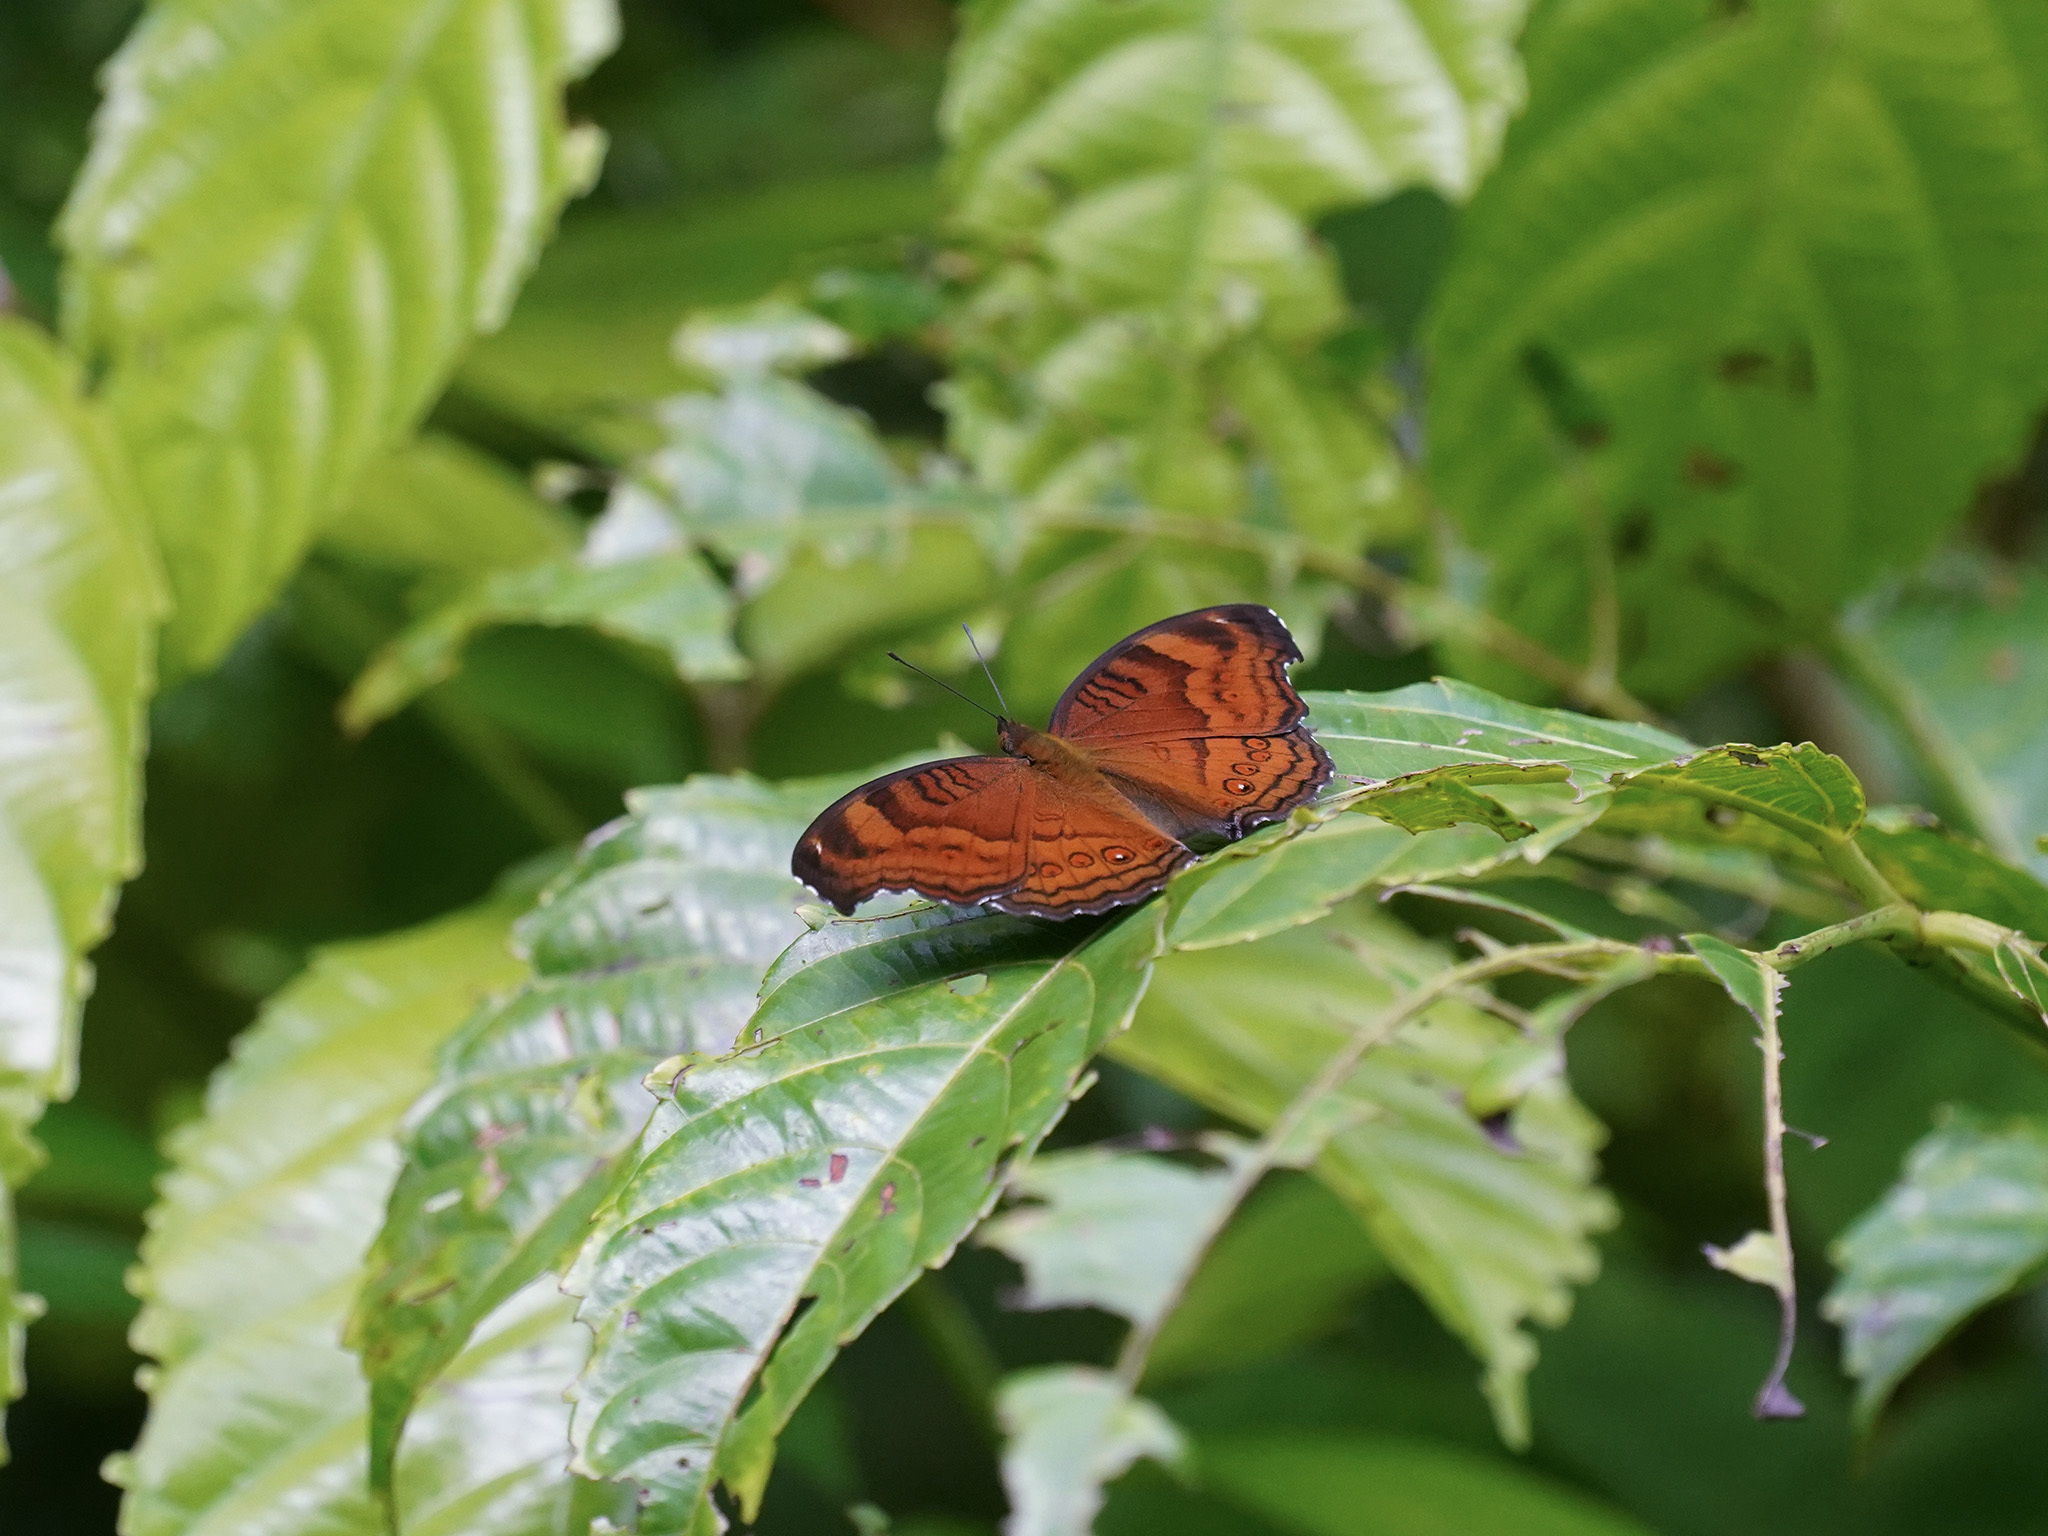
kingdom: Animalia
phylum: Arthropoda
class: Insecta
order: Lepidoptera
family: Nymphalidae
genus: Junonia
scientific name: Junonia hedonia
